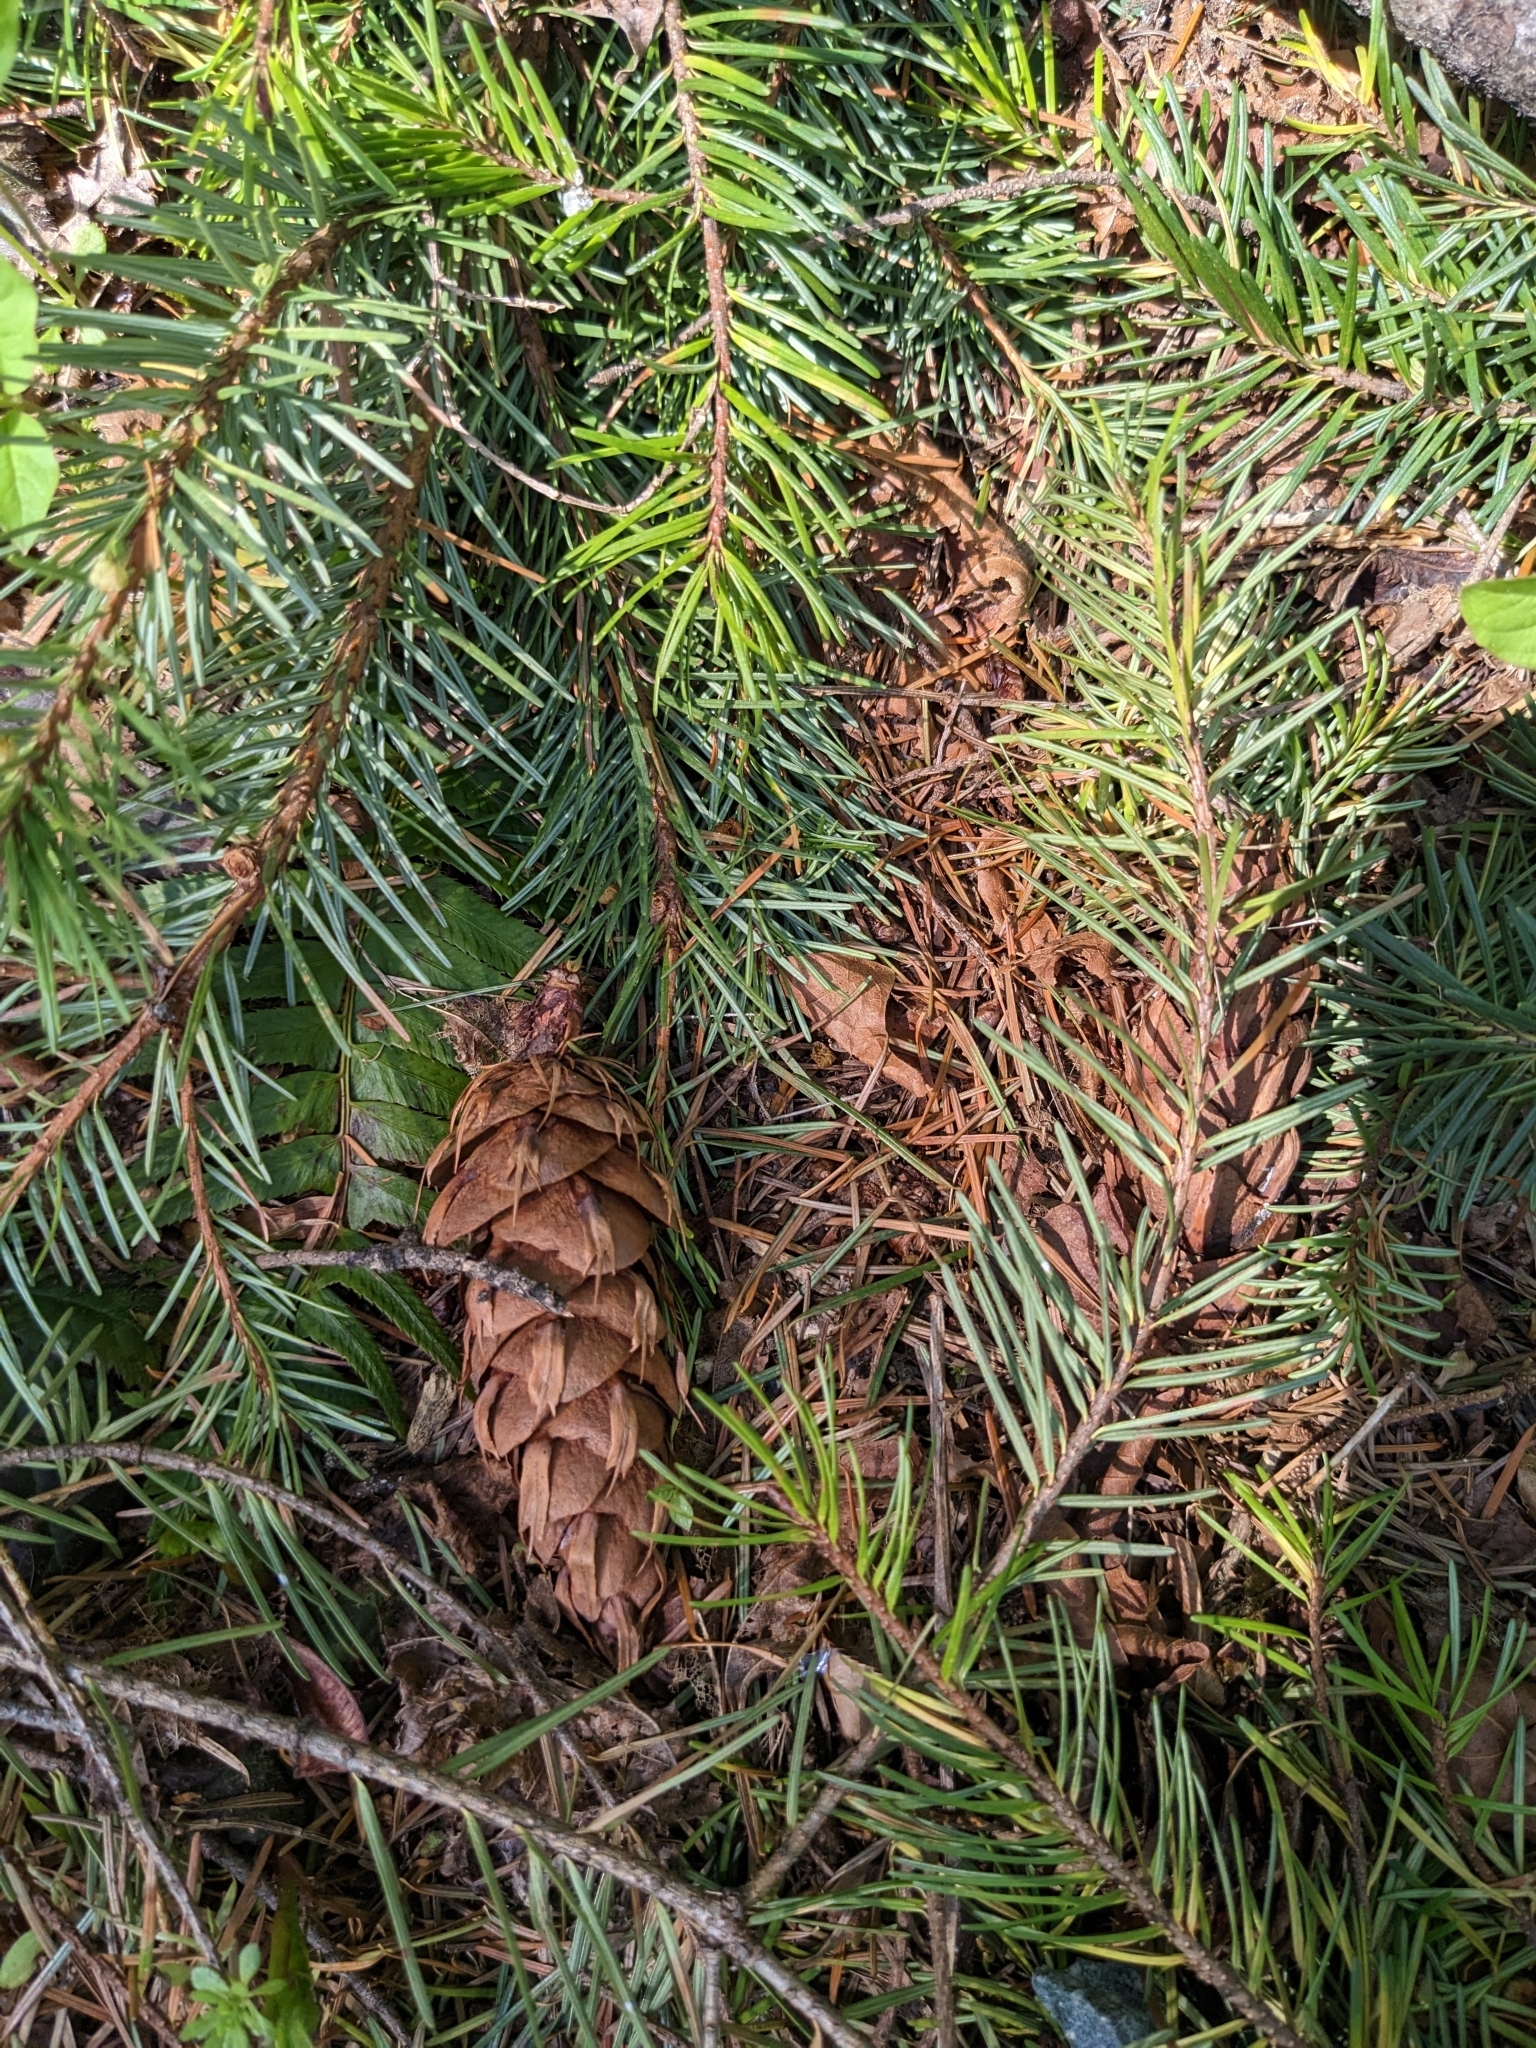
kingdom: Plantae
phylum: Tracheophyta
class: Pinopsida
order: Pinales
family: Pinaceae
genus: Pseudotsuga
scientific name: Pseudotsuga menziesii
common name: Douglas fir
